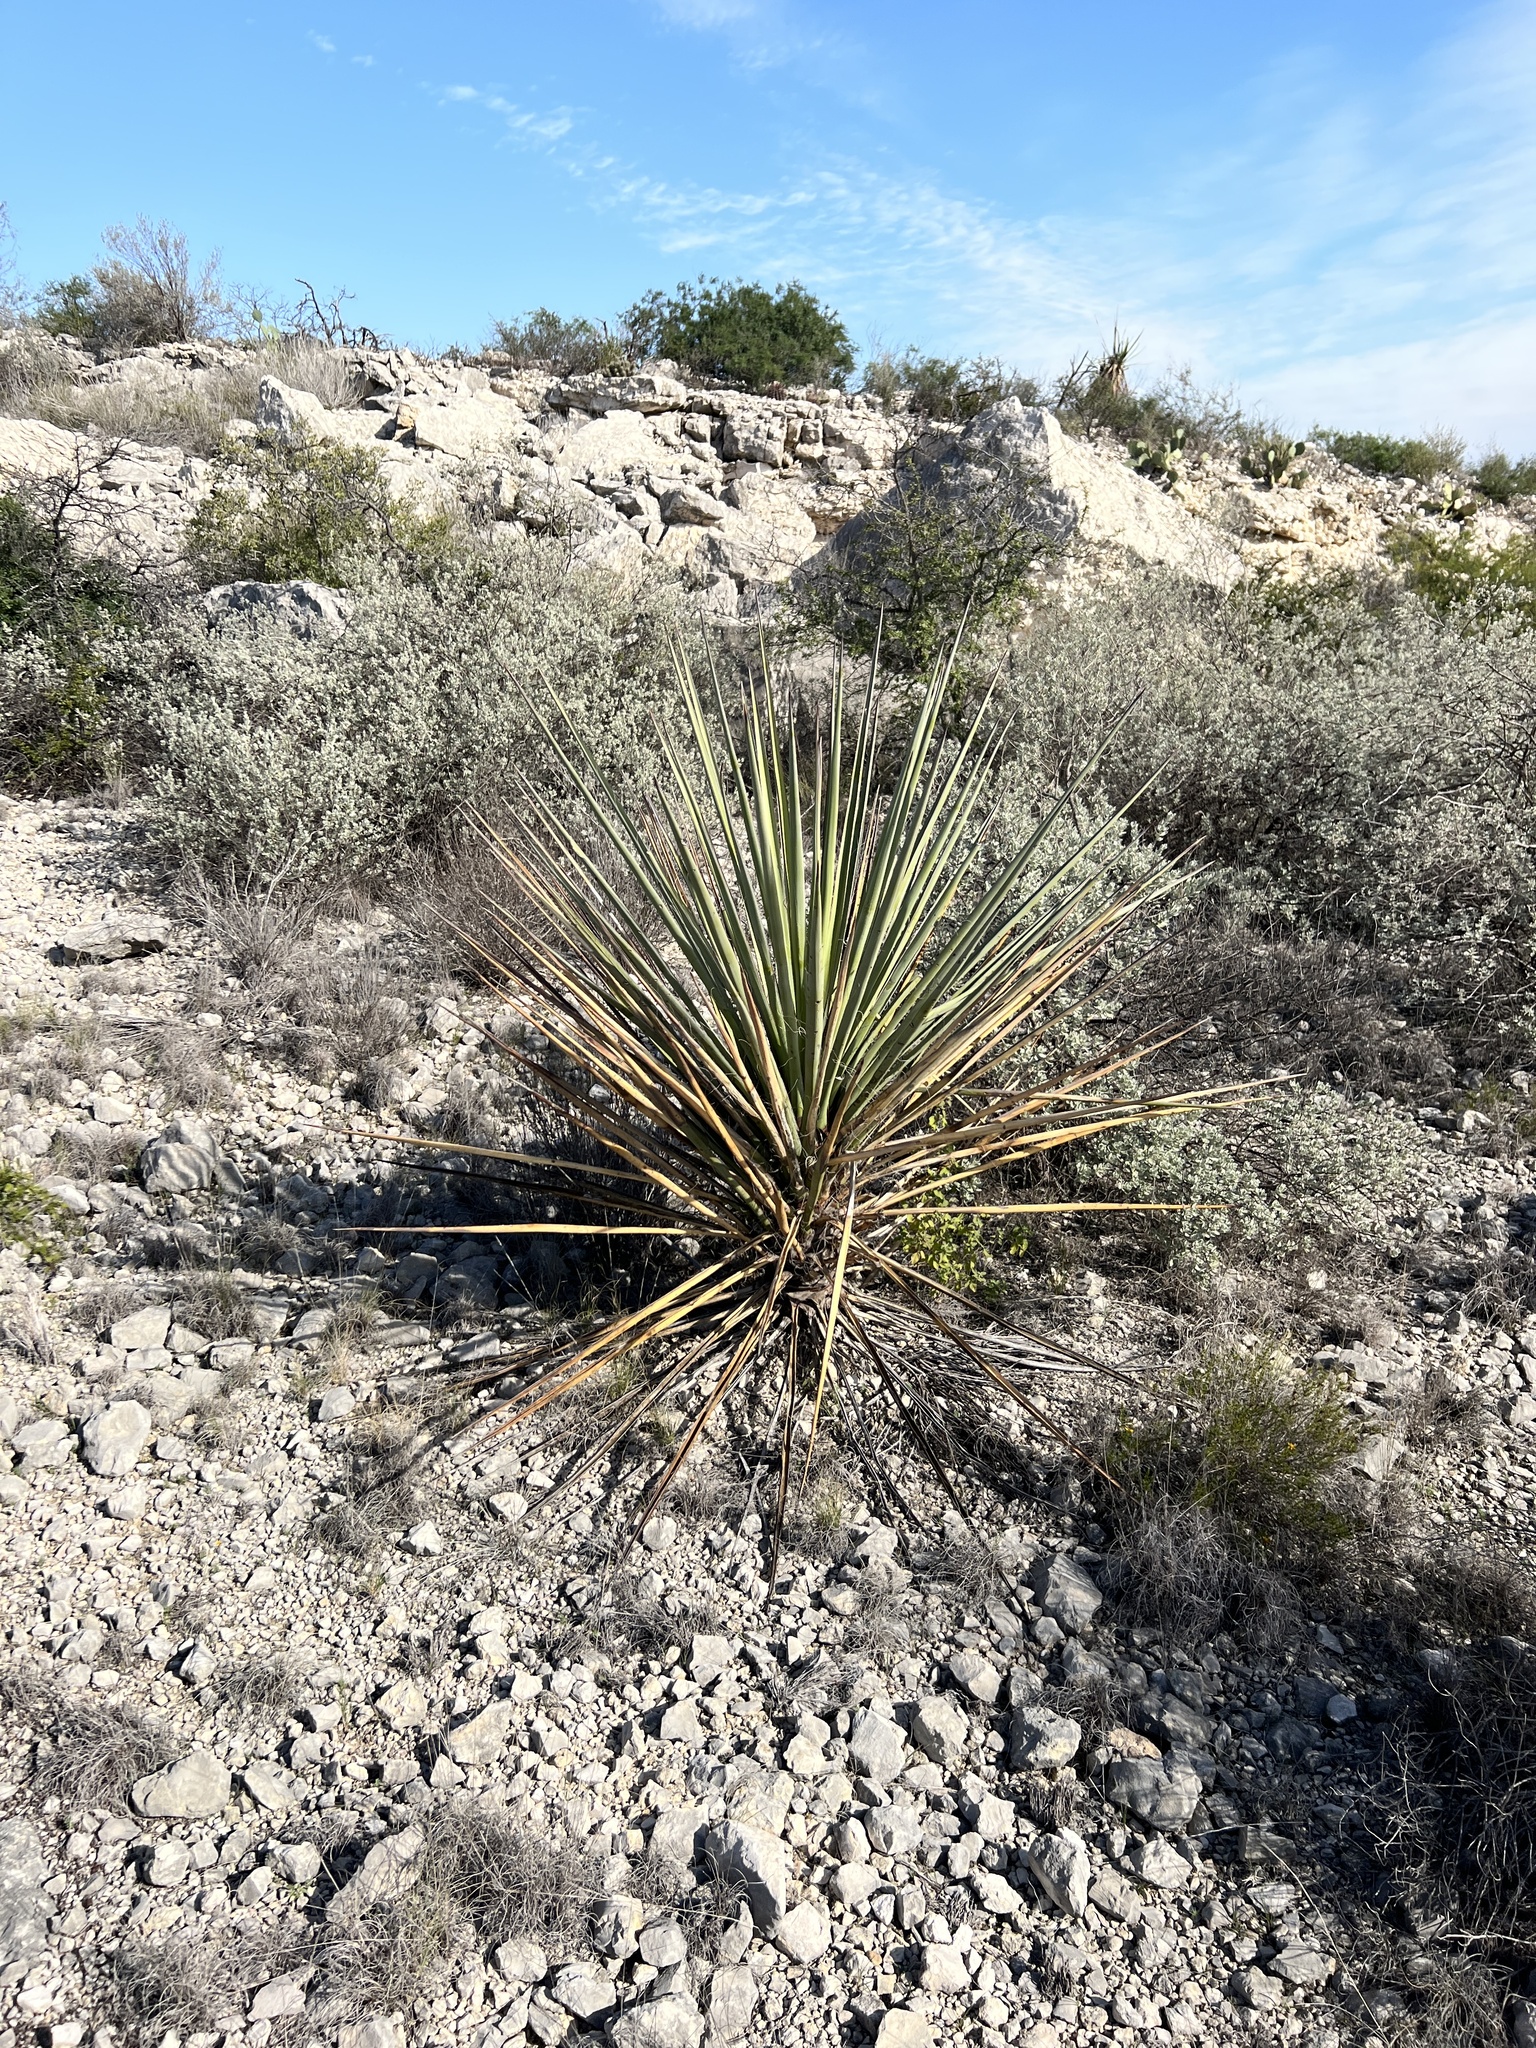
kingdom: Plantae
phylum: Tracheophyta
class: Liliopsida
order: Asparagales
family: Asparagaceae
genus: Yucca
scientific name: Yucca treculiana
